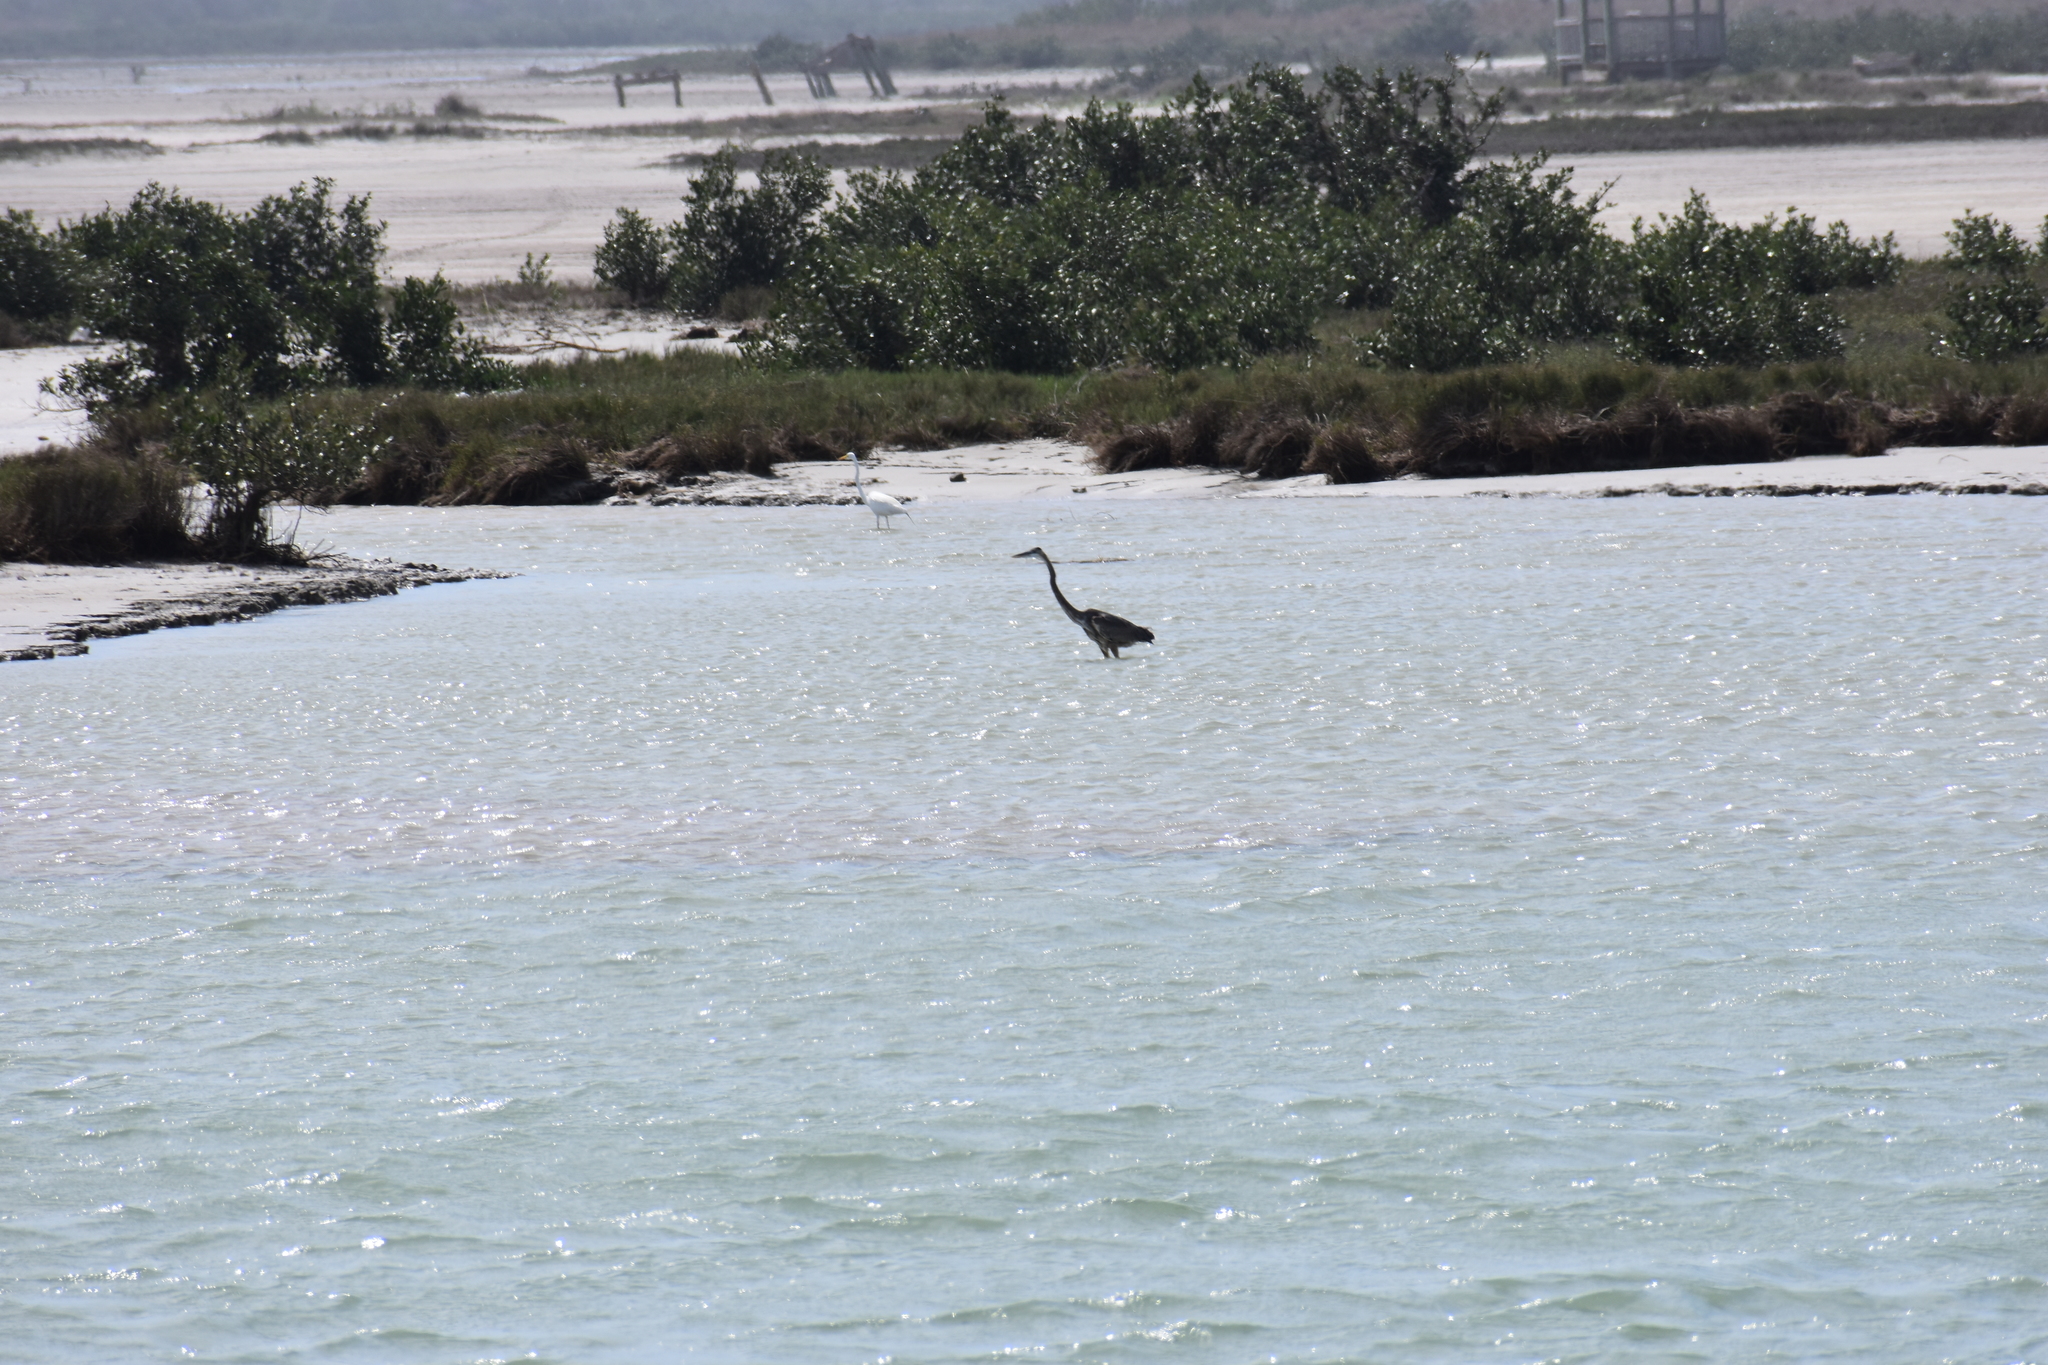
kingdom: Animalia
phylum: Chordata
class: Aves
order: Pelecaniformes
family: Ardeidae
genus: Ardea
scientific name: Ardea alba
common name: Great egret
